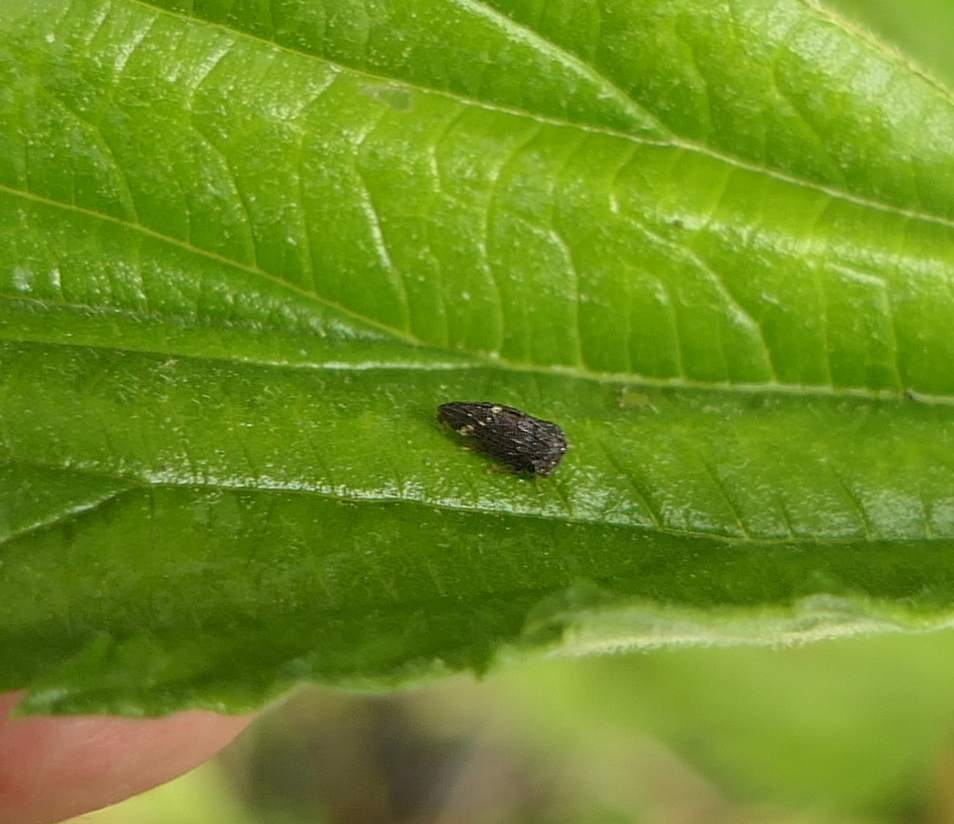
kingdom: Animalia
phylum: Arthropoda
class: Insecta
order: Hemiptera
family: Membracidae
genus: Publilia
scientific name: Publilia concava
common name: Aster treehopper
